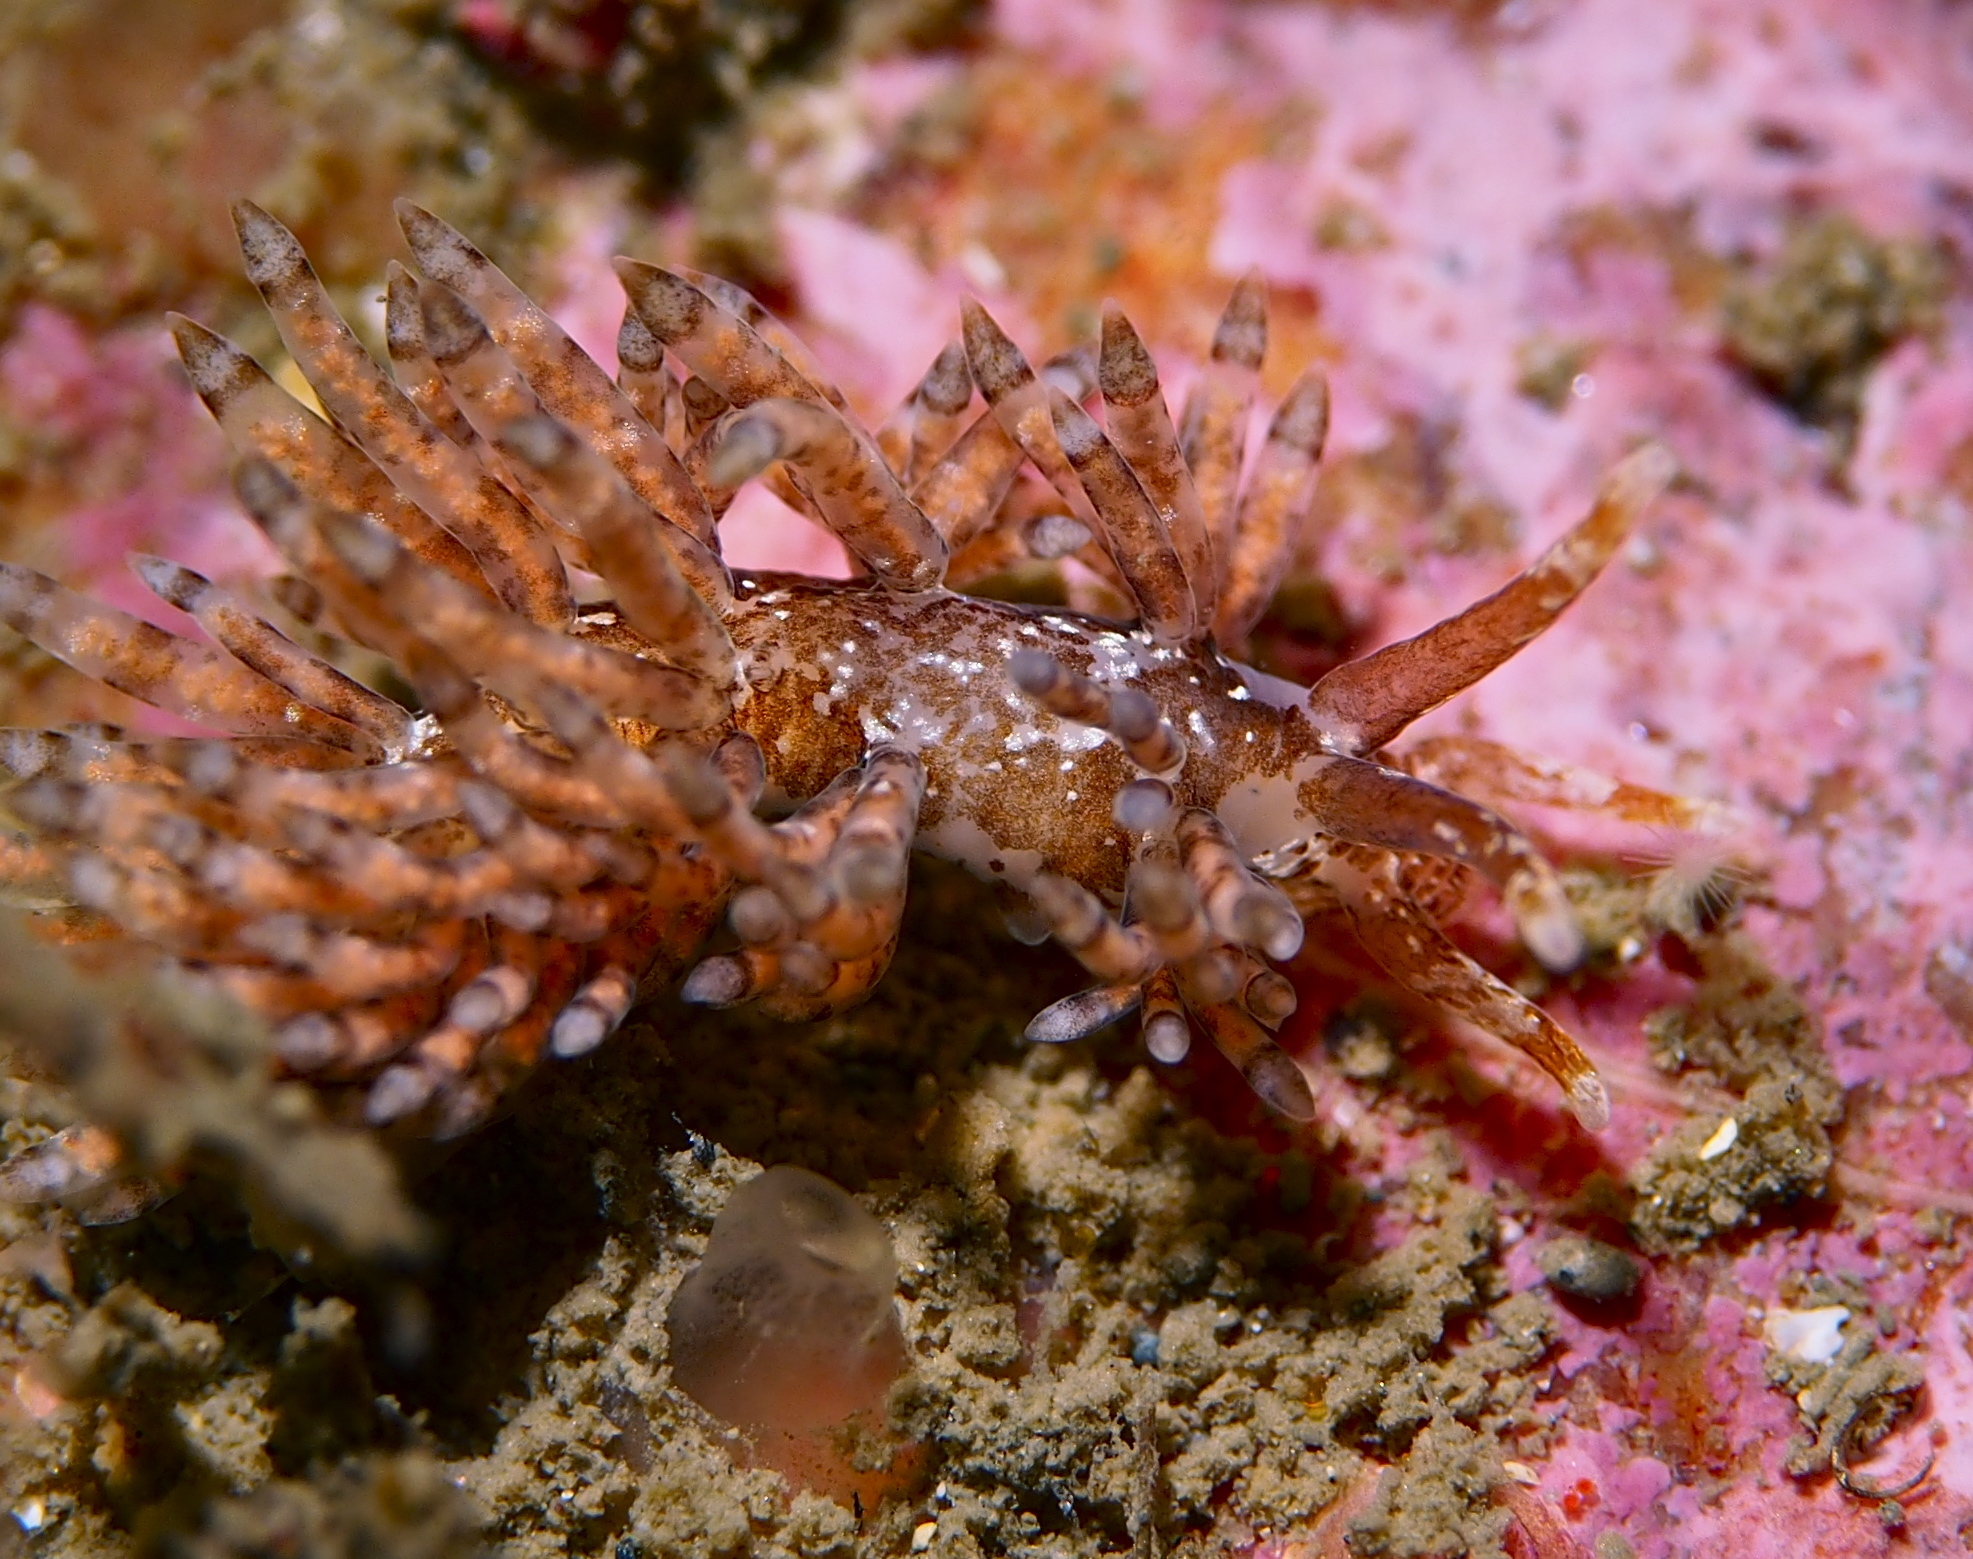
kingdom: Animalia
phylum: Mollusca
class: Gastropoda
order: Nudibranchia
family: Eubranchidae
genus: Eubranchus
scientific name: Eubranchus vittatus
